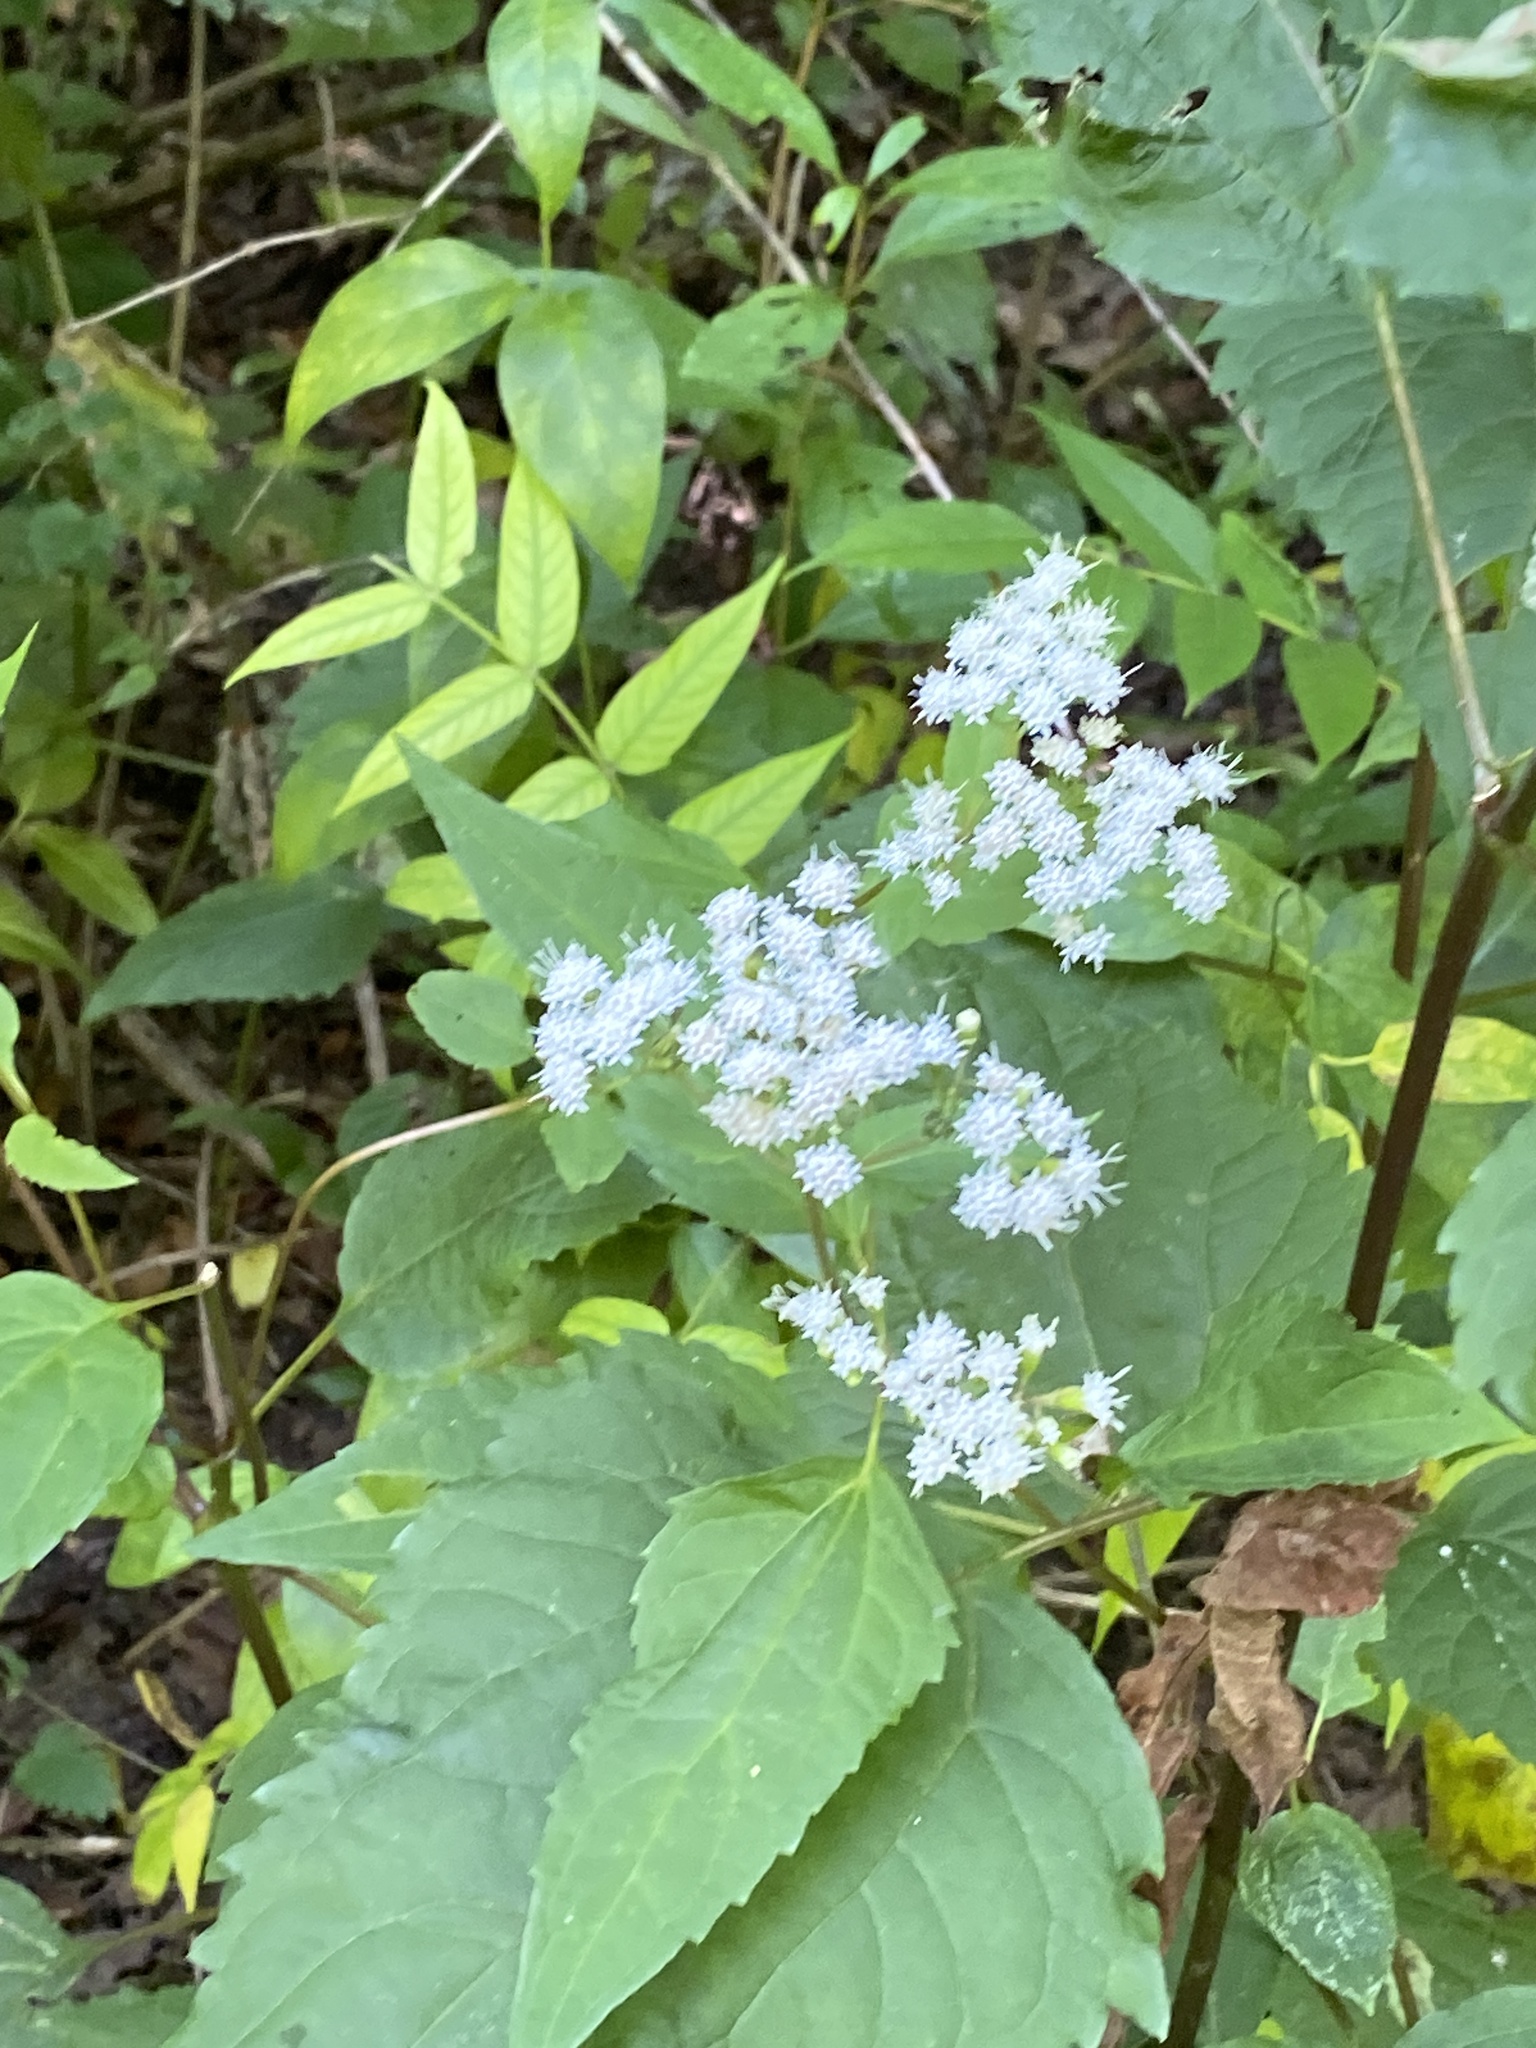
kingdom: Plantae
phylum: Tracheophyta
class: Magnoliopsida
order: Asterales
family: Asteraceae
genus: Ageratina
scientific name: Ageratina altissima
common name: White snakeroot
